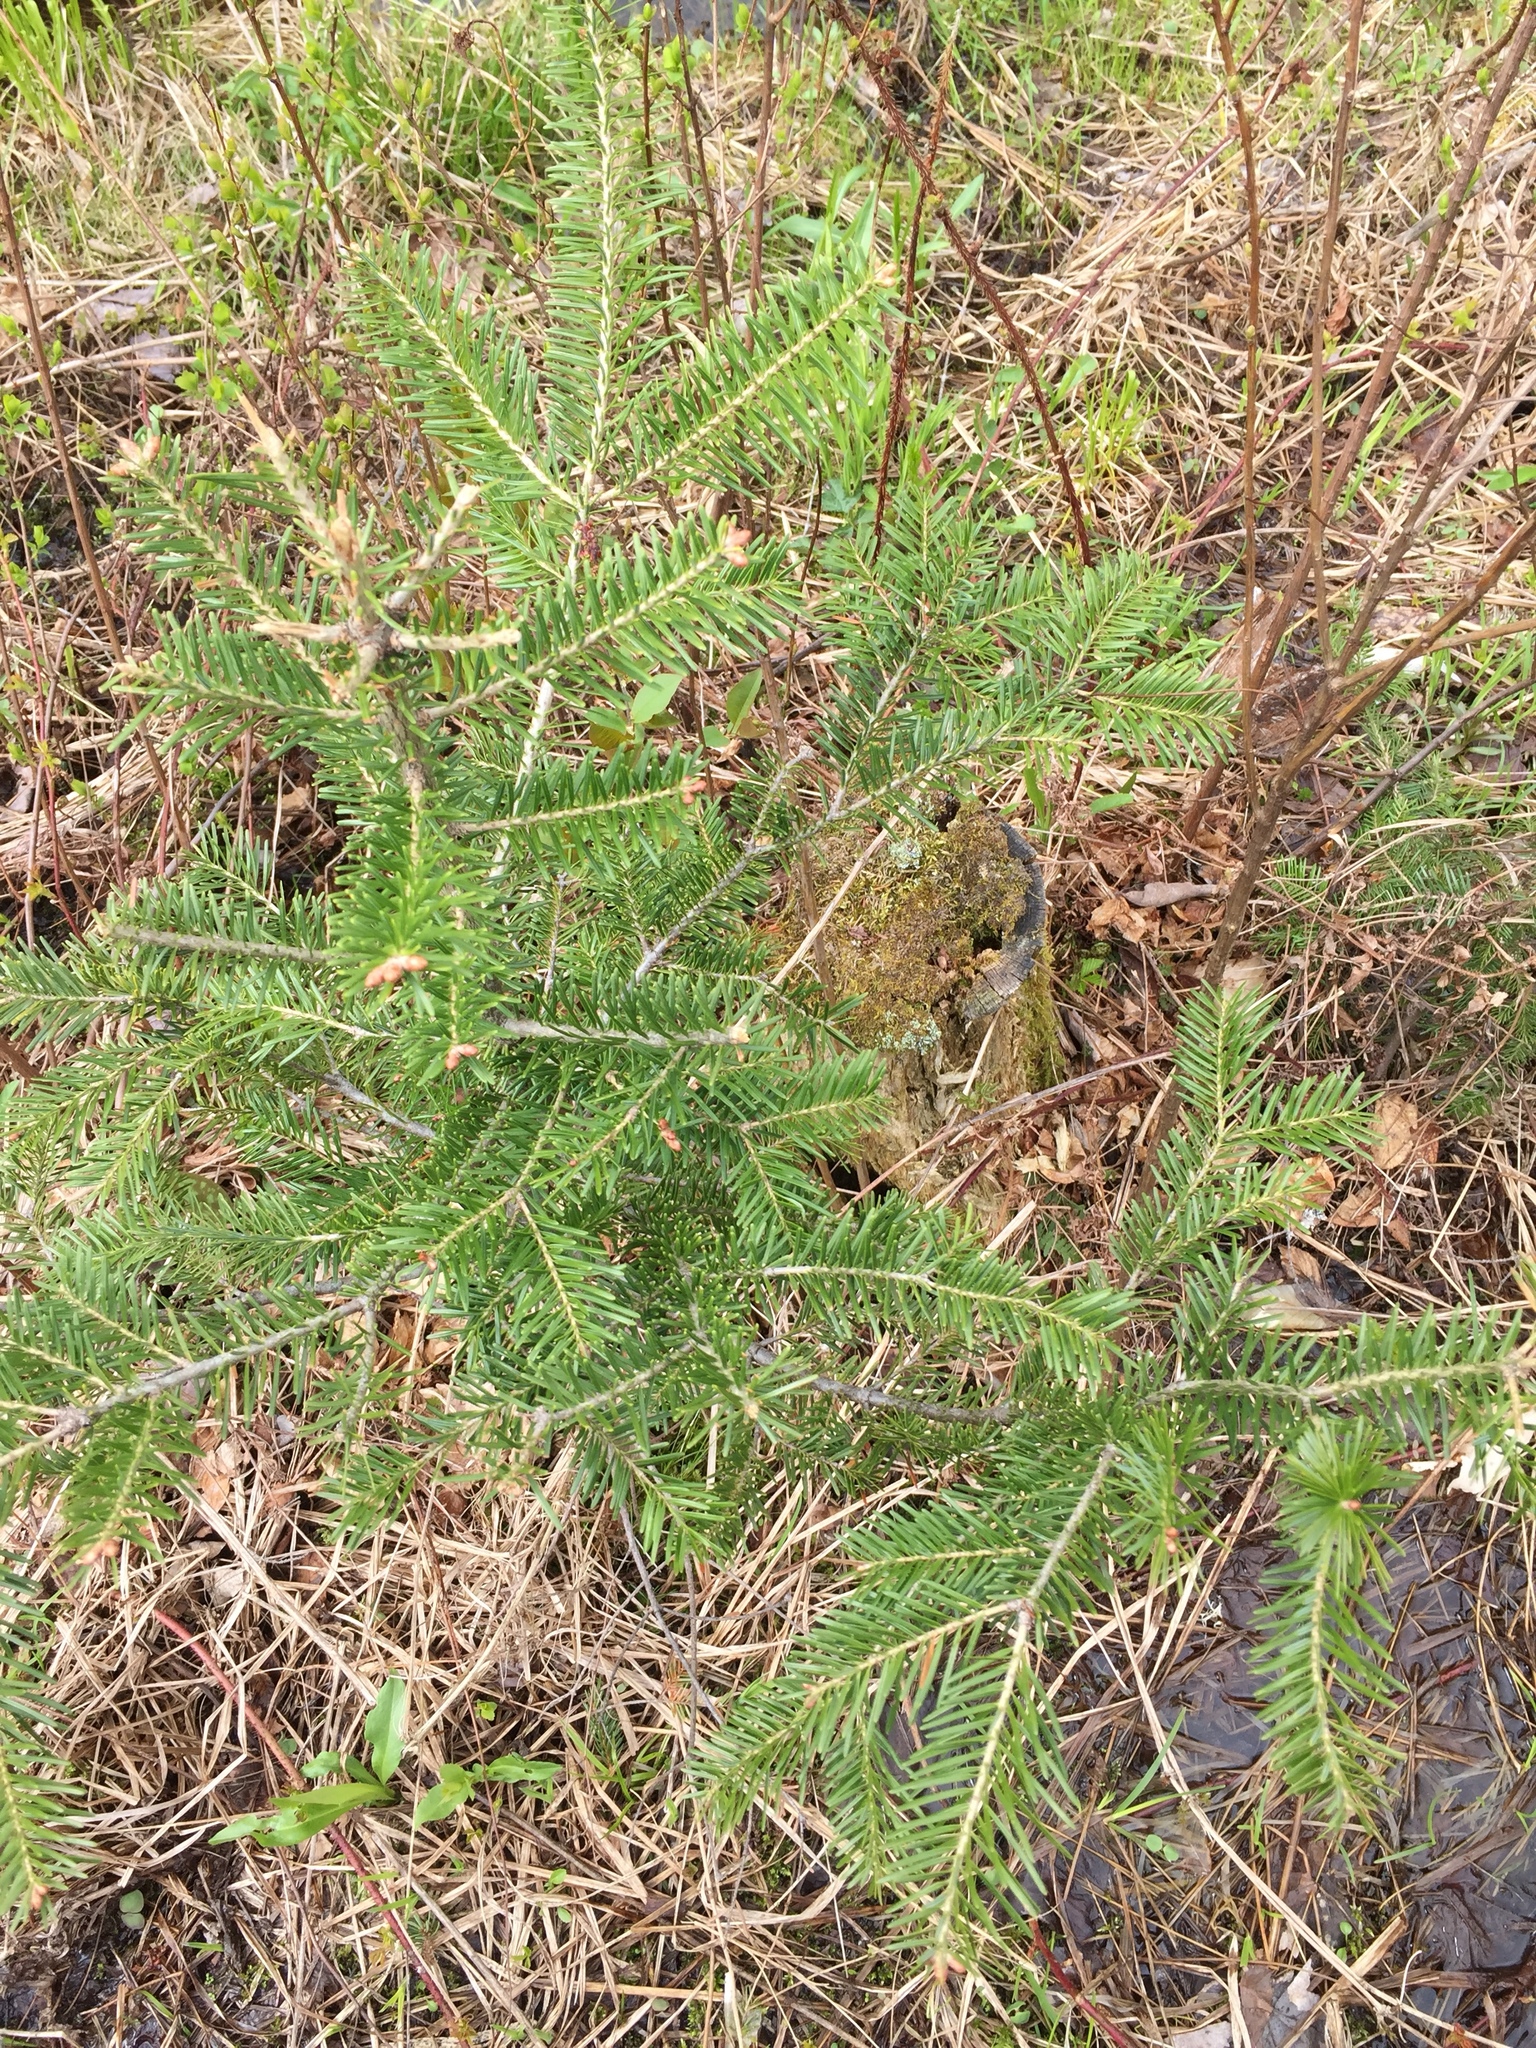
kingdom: Plantae
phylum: Tracheophyta
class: Pinopsida
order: Pinales
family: Pinaceae
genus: Abies
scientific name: Abies balsamea
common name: Balsam fir
